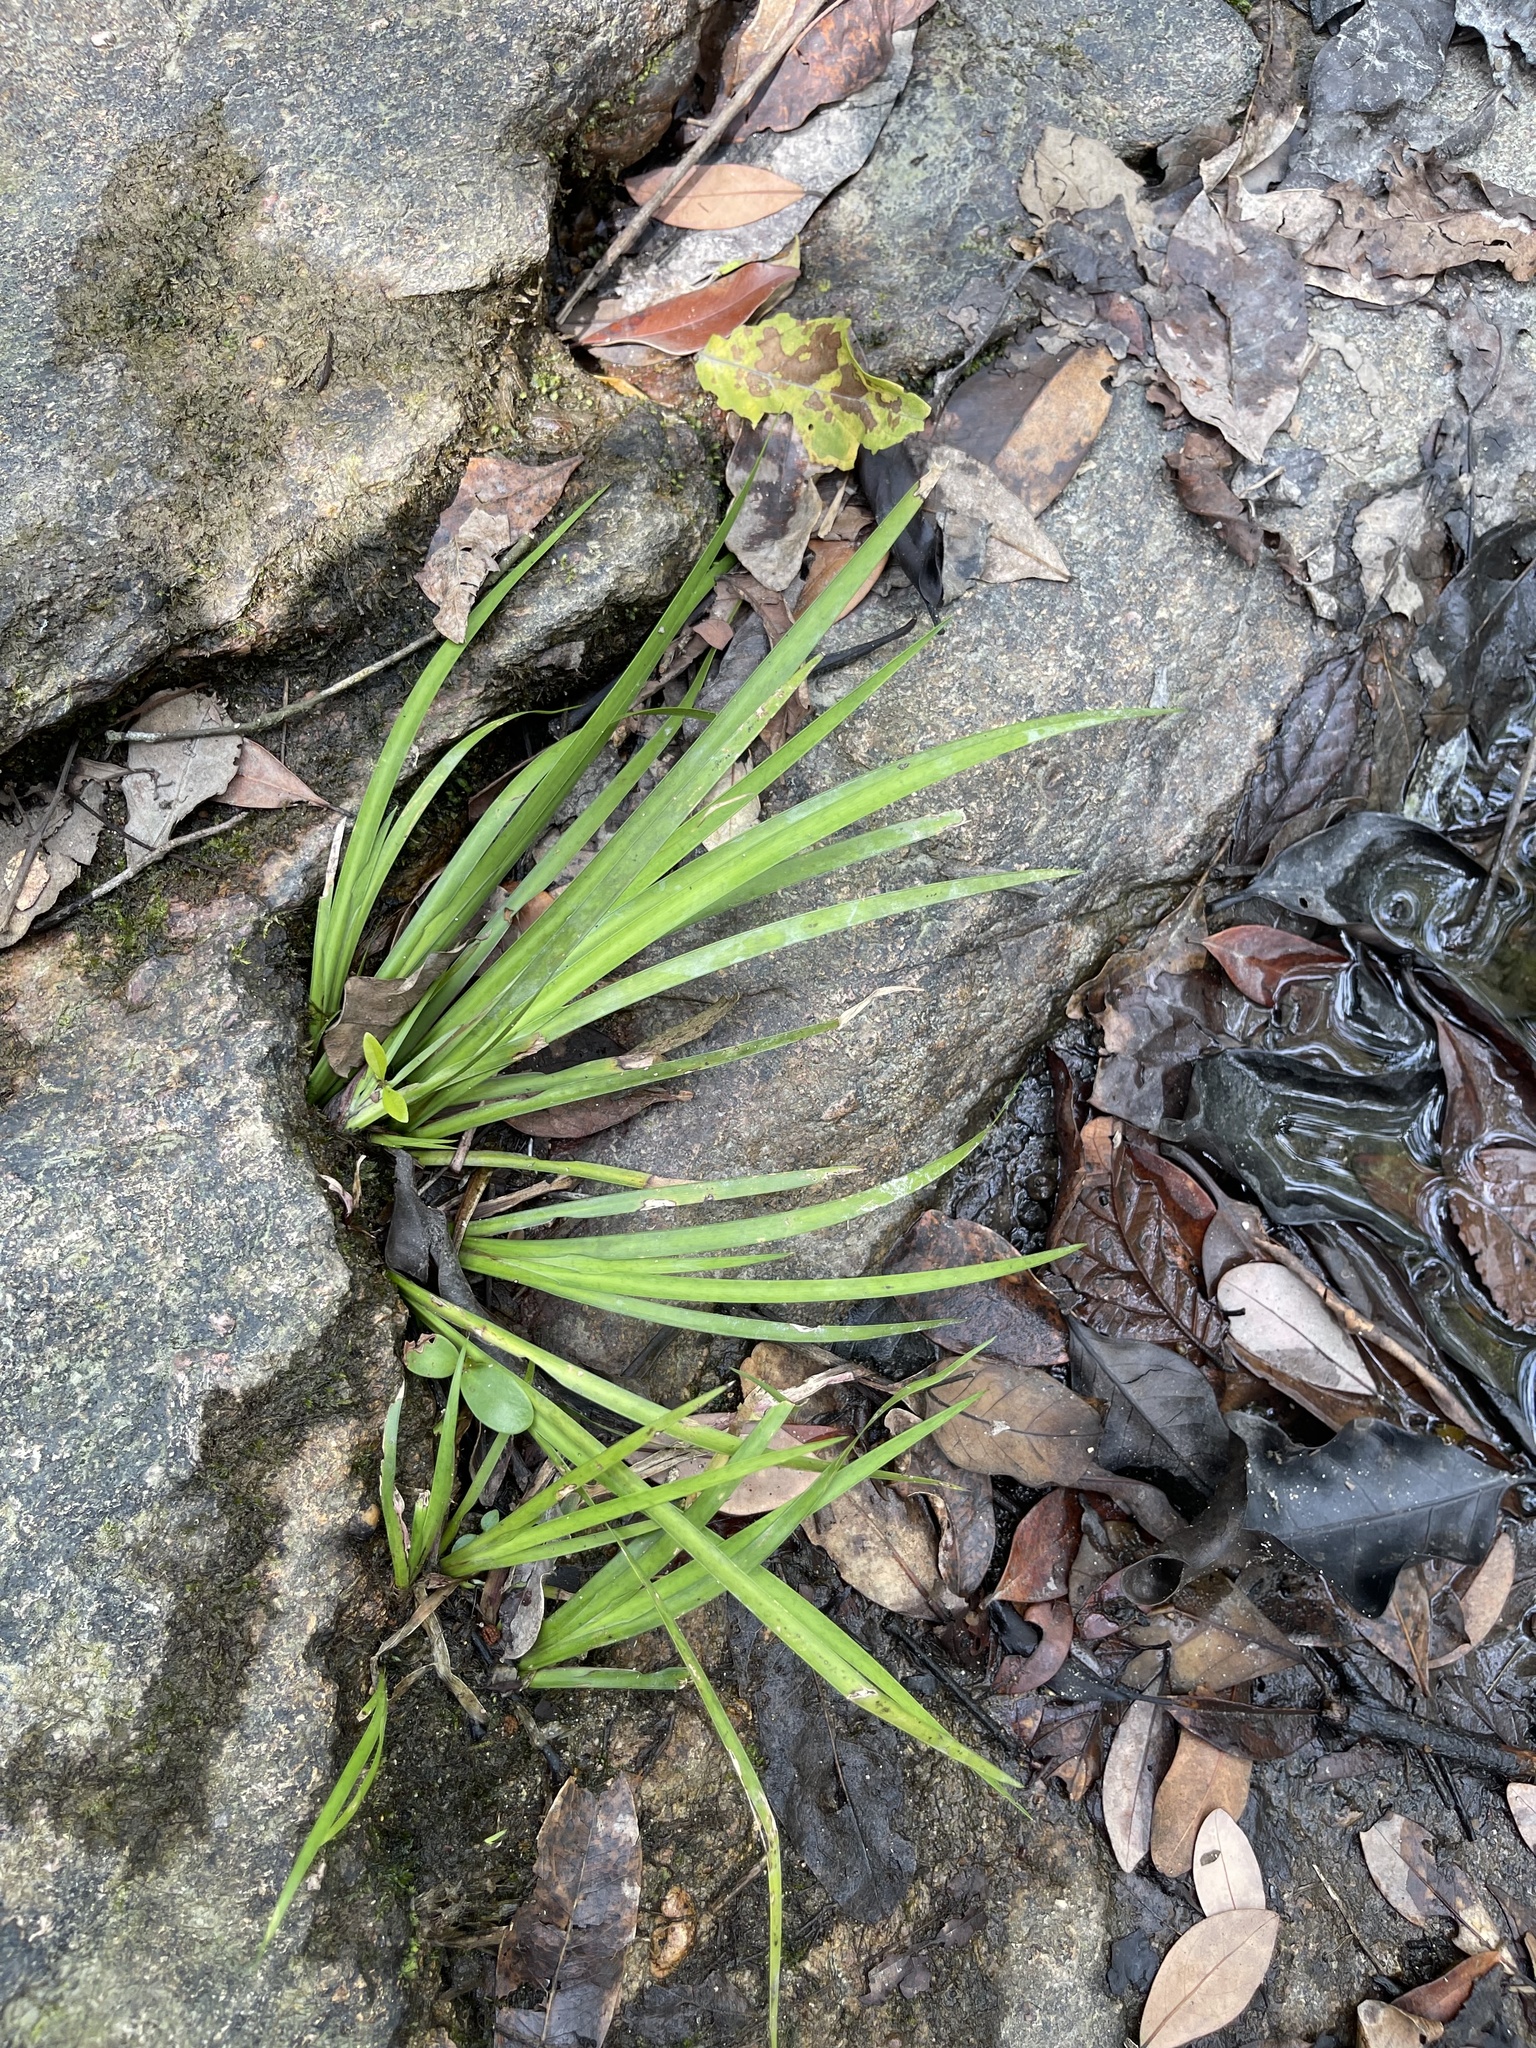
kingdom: Plantae
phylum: Tracheophyta
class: Liliopsida
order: Acorales
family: Acoraceae
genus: Acorus
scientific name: Acorus gramineus
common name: Slender sweet-flag
